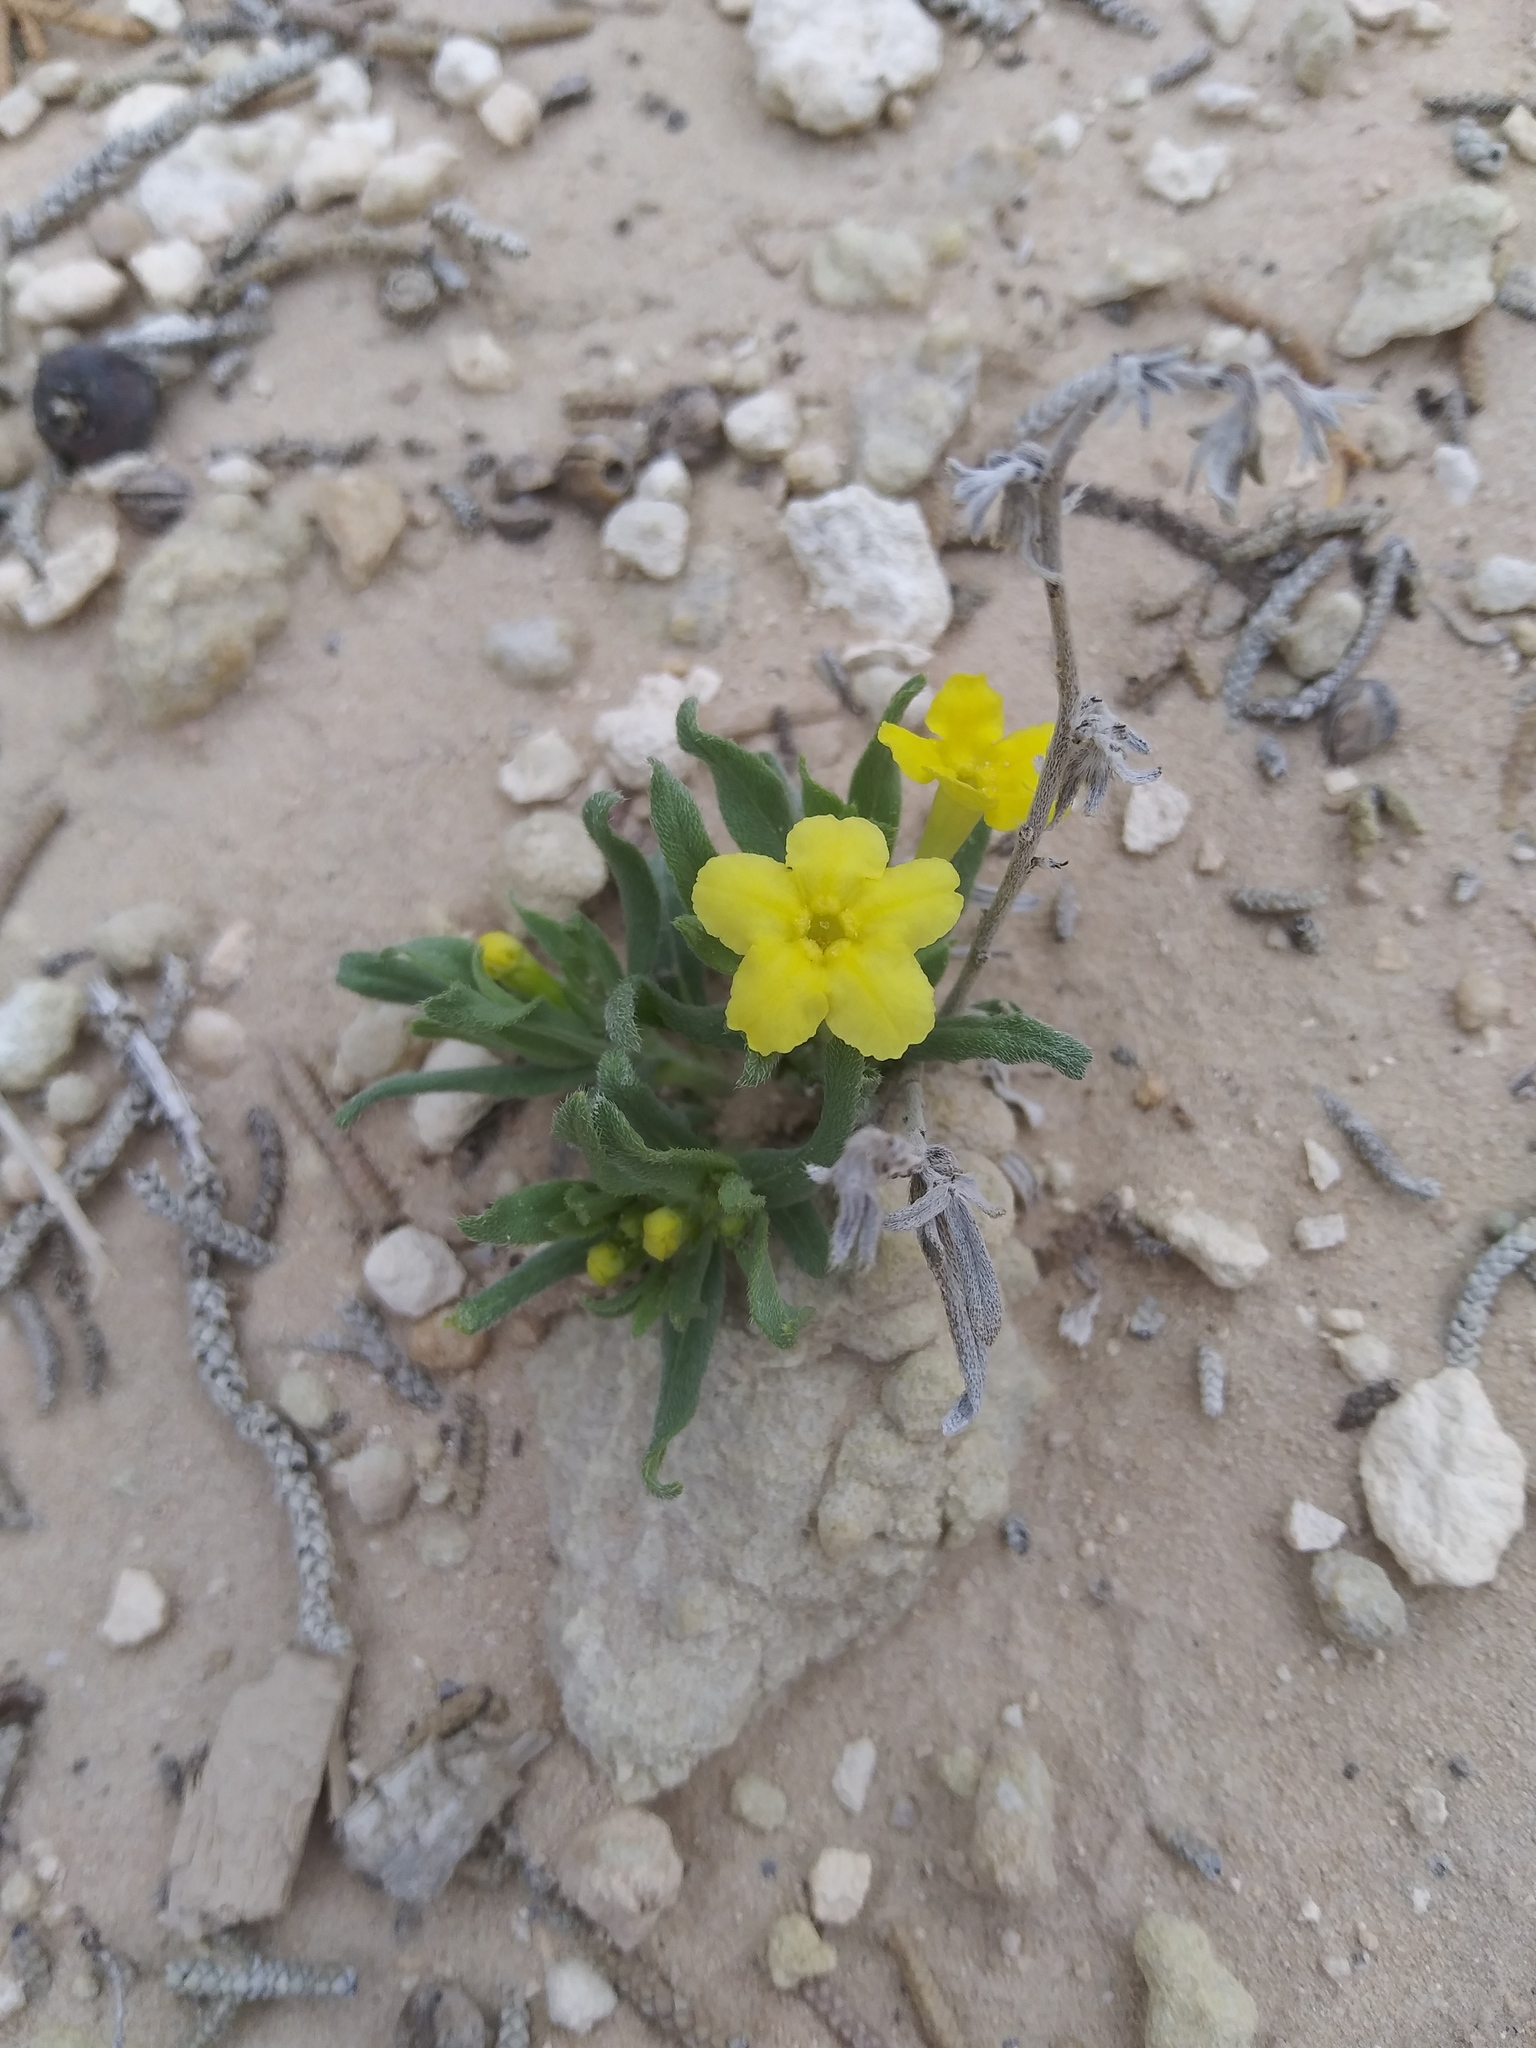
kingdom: Plantae
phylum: Tracheophyta
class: Magnoliopsida
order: Boraginales
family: Boraginaceae
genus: Lithospermum
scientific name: Lithospermum incisum
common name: Fringed gromwell
